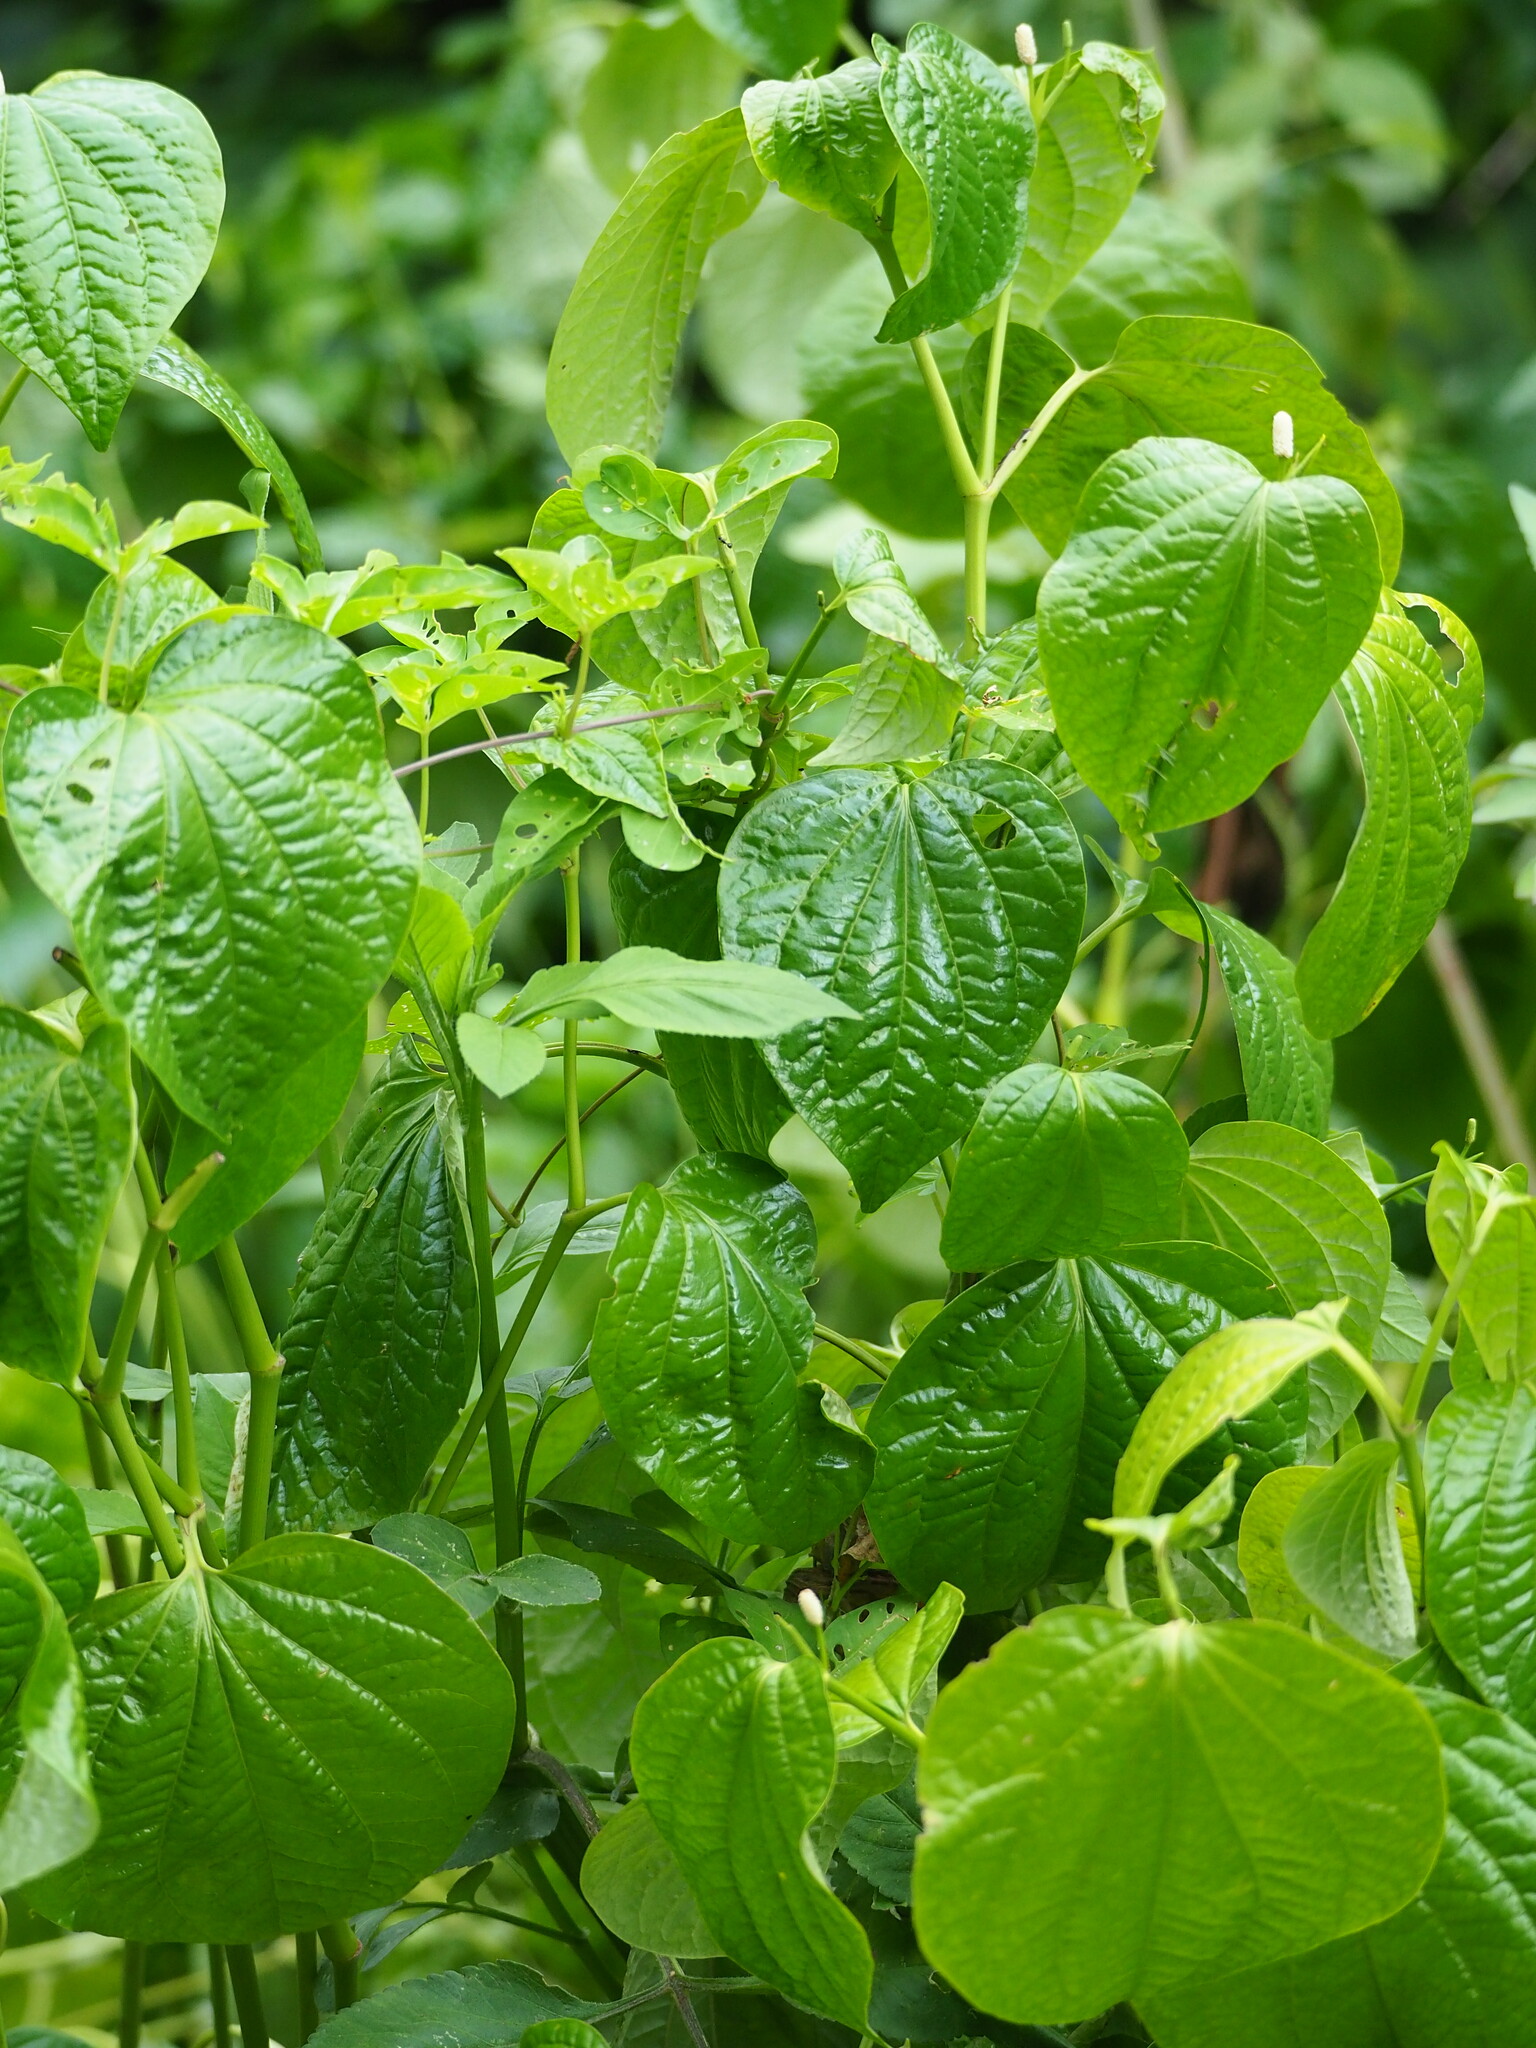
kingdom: Plantae
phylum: Tracheophyta
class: Magnoliopsida
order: Piperales
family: Piperaceae
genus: Piper
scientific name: Piper sarmentosum
